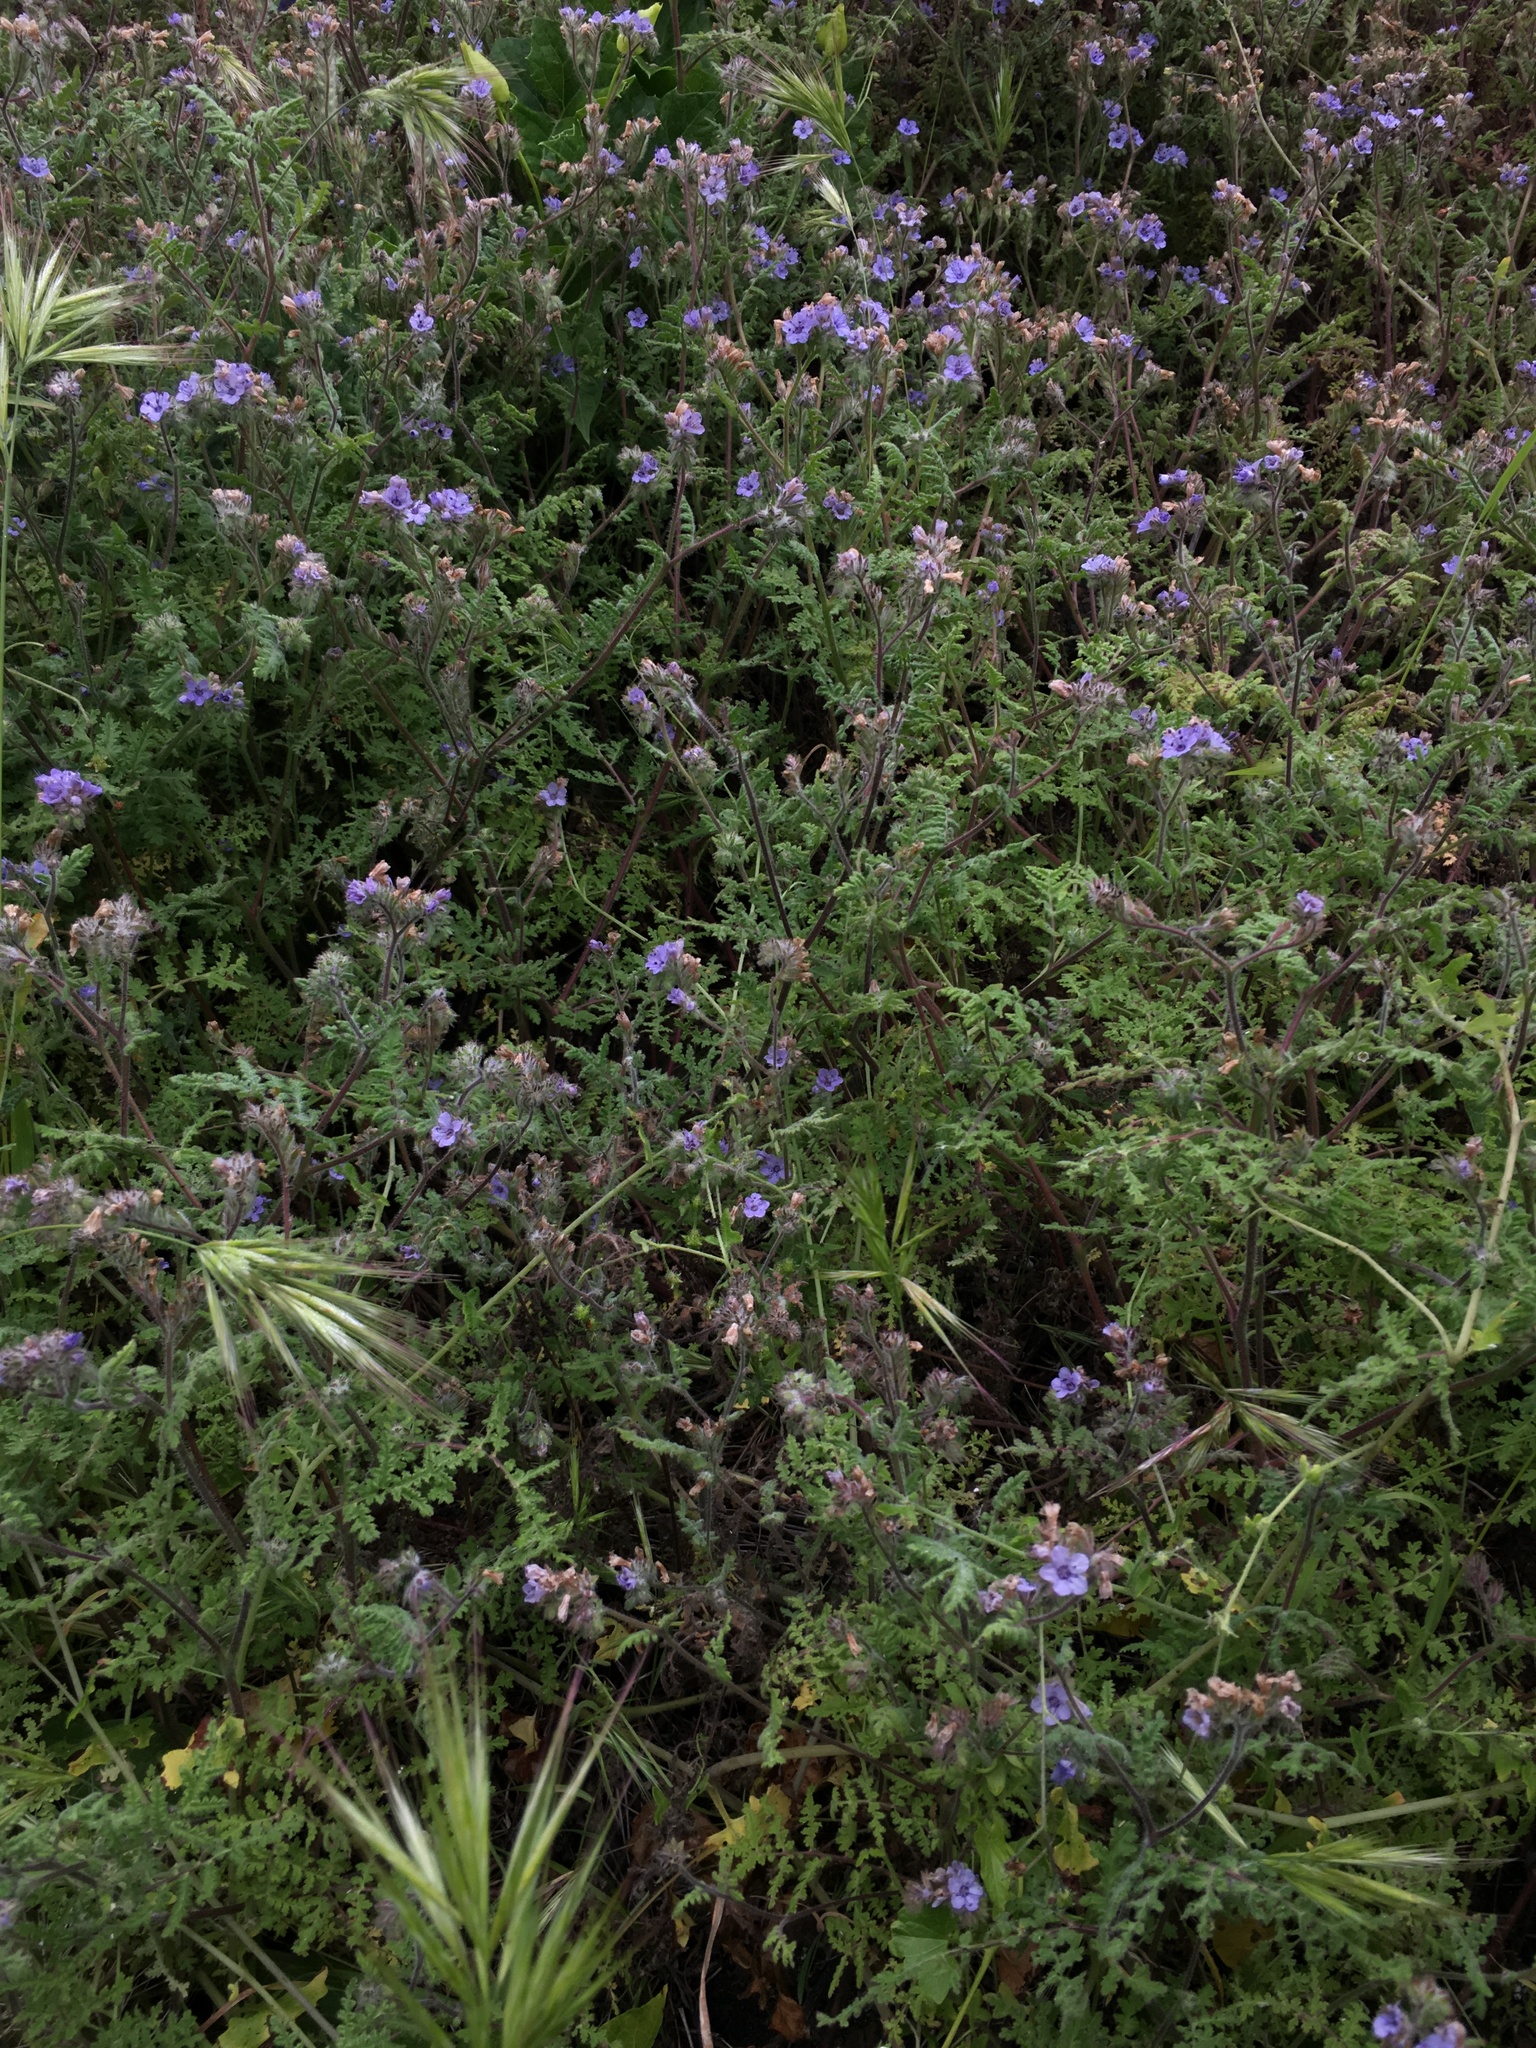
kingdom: Plantae
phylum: Tracheophyta
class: Magnoliopsida
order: Boraginales
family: Hydrophyllaceae
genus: Phacelia
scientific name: Phacelia distans
